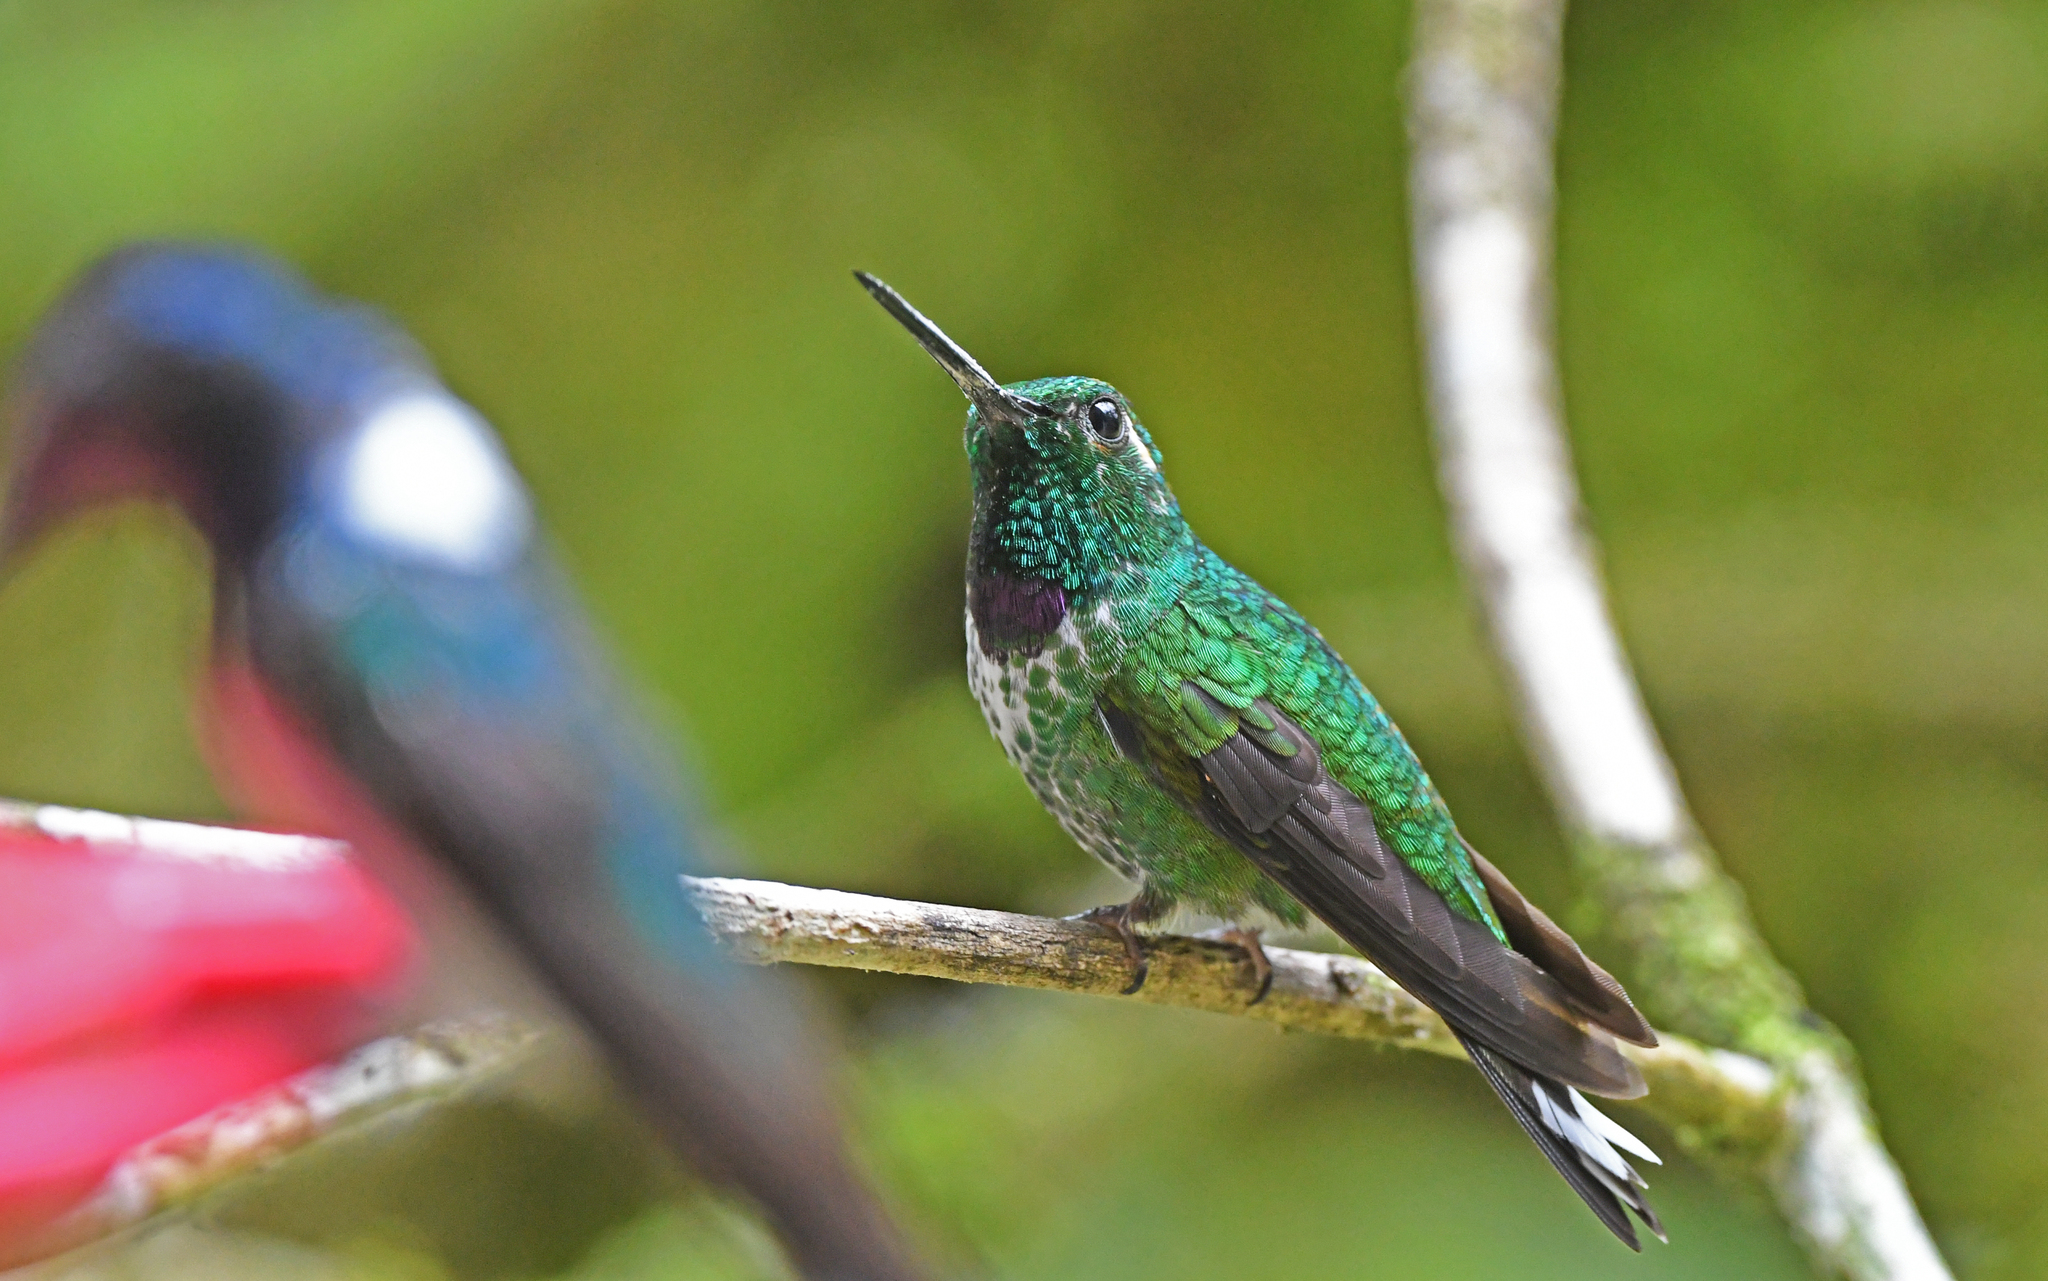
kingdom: Animalia
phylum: Chordata
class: Aves
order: Apodiformes
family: Trochilidae
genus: Urosticte
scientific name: Urosticte benjamini
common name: Purple-bibbed whitetip
